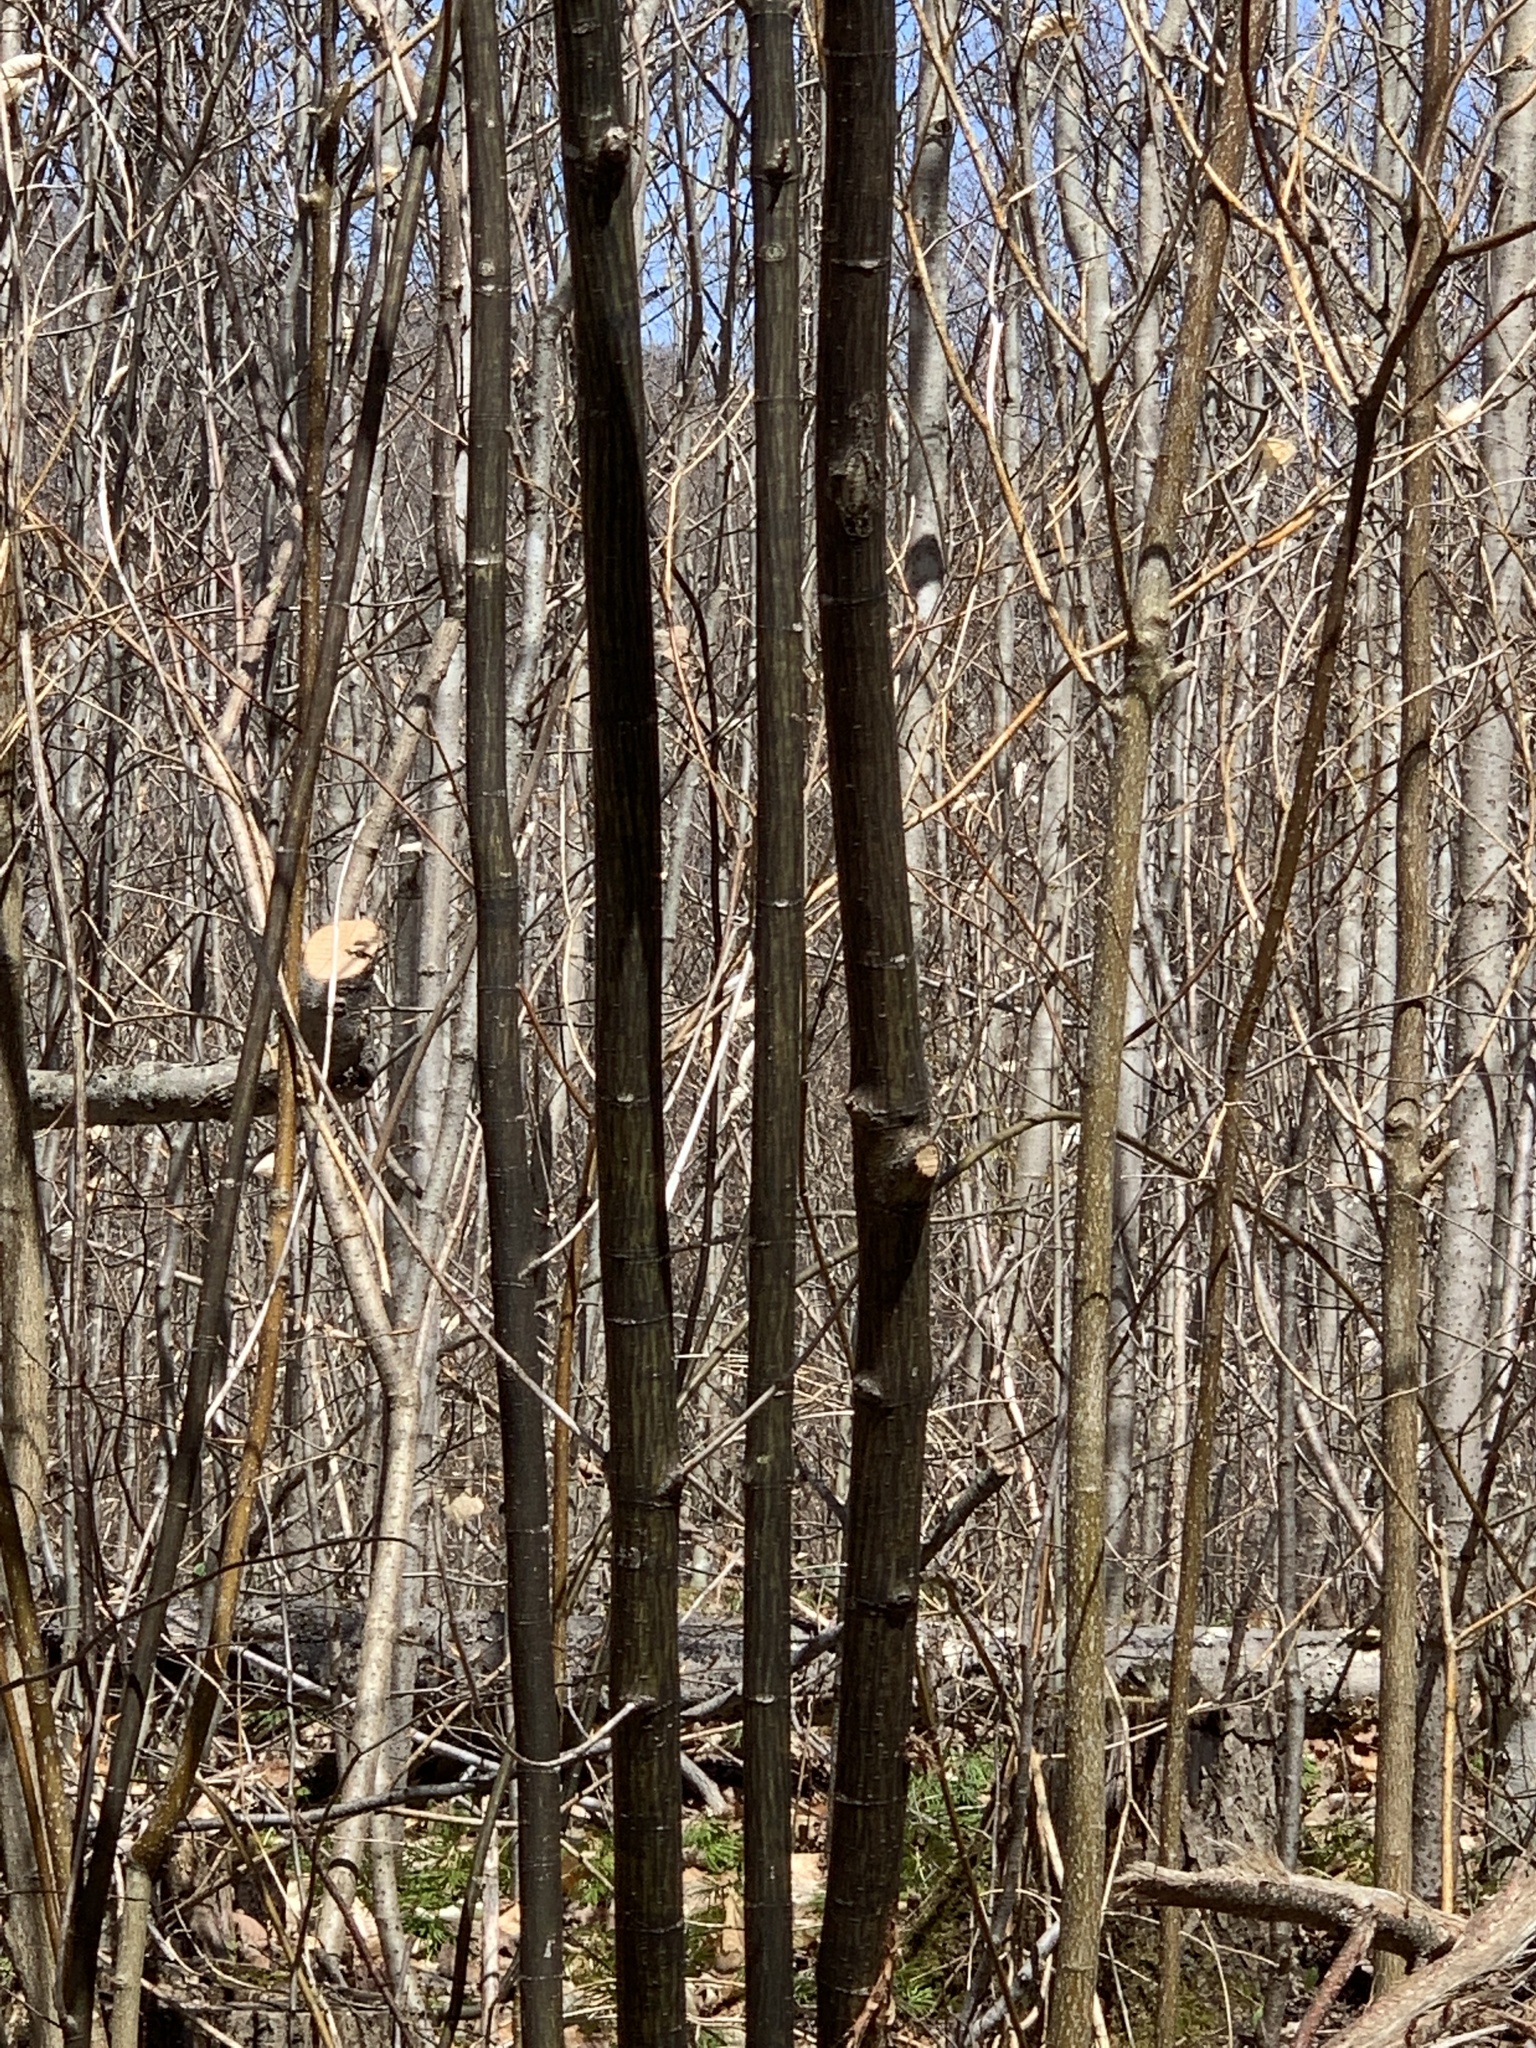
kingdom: Plantae
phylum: Tracheophyta
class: Magnoliopsida
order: Sapindales
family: Sapindaceae
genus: Acer
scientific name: Acer pensylvanicum
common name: Moosewood
